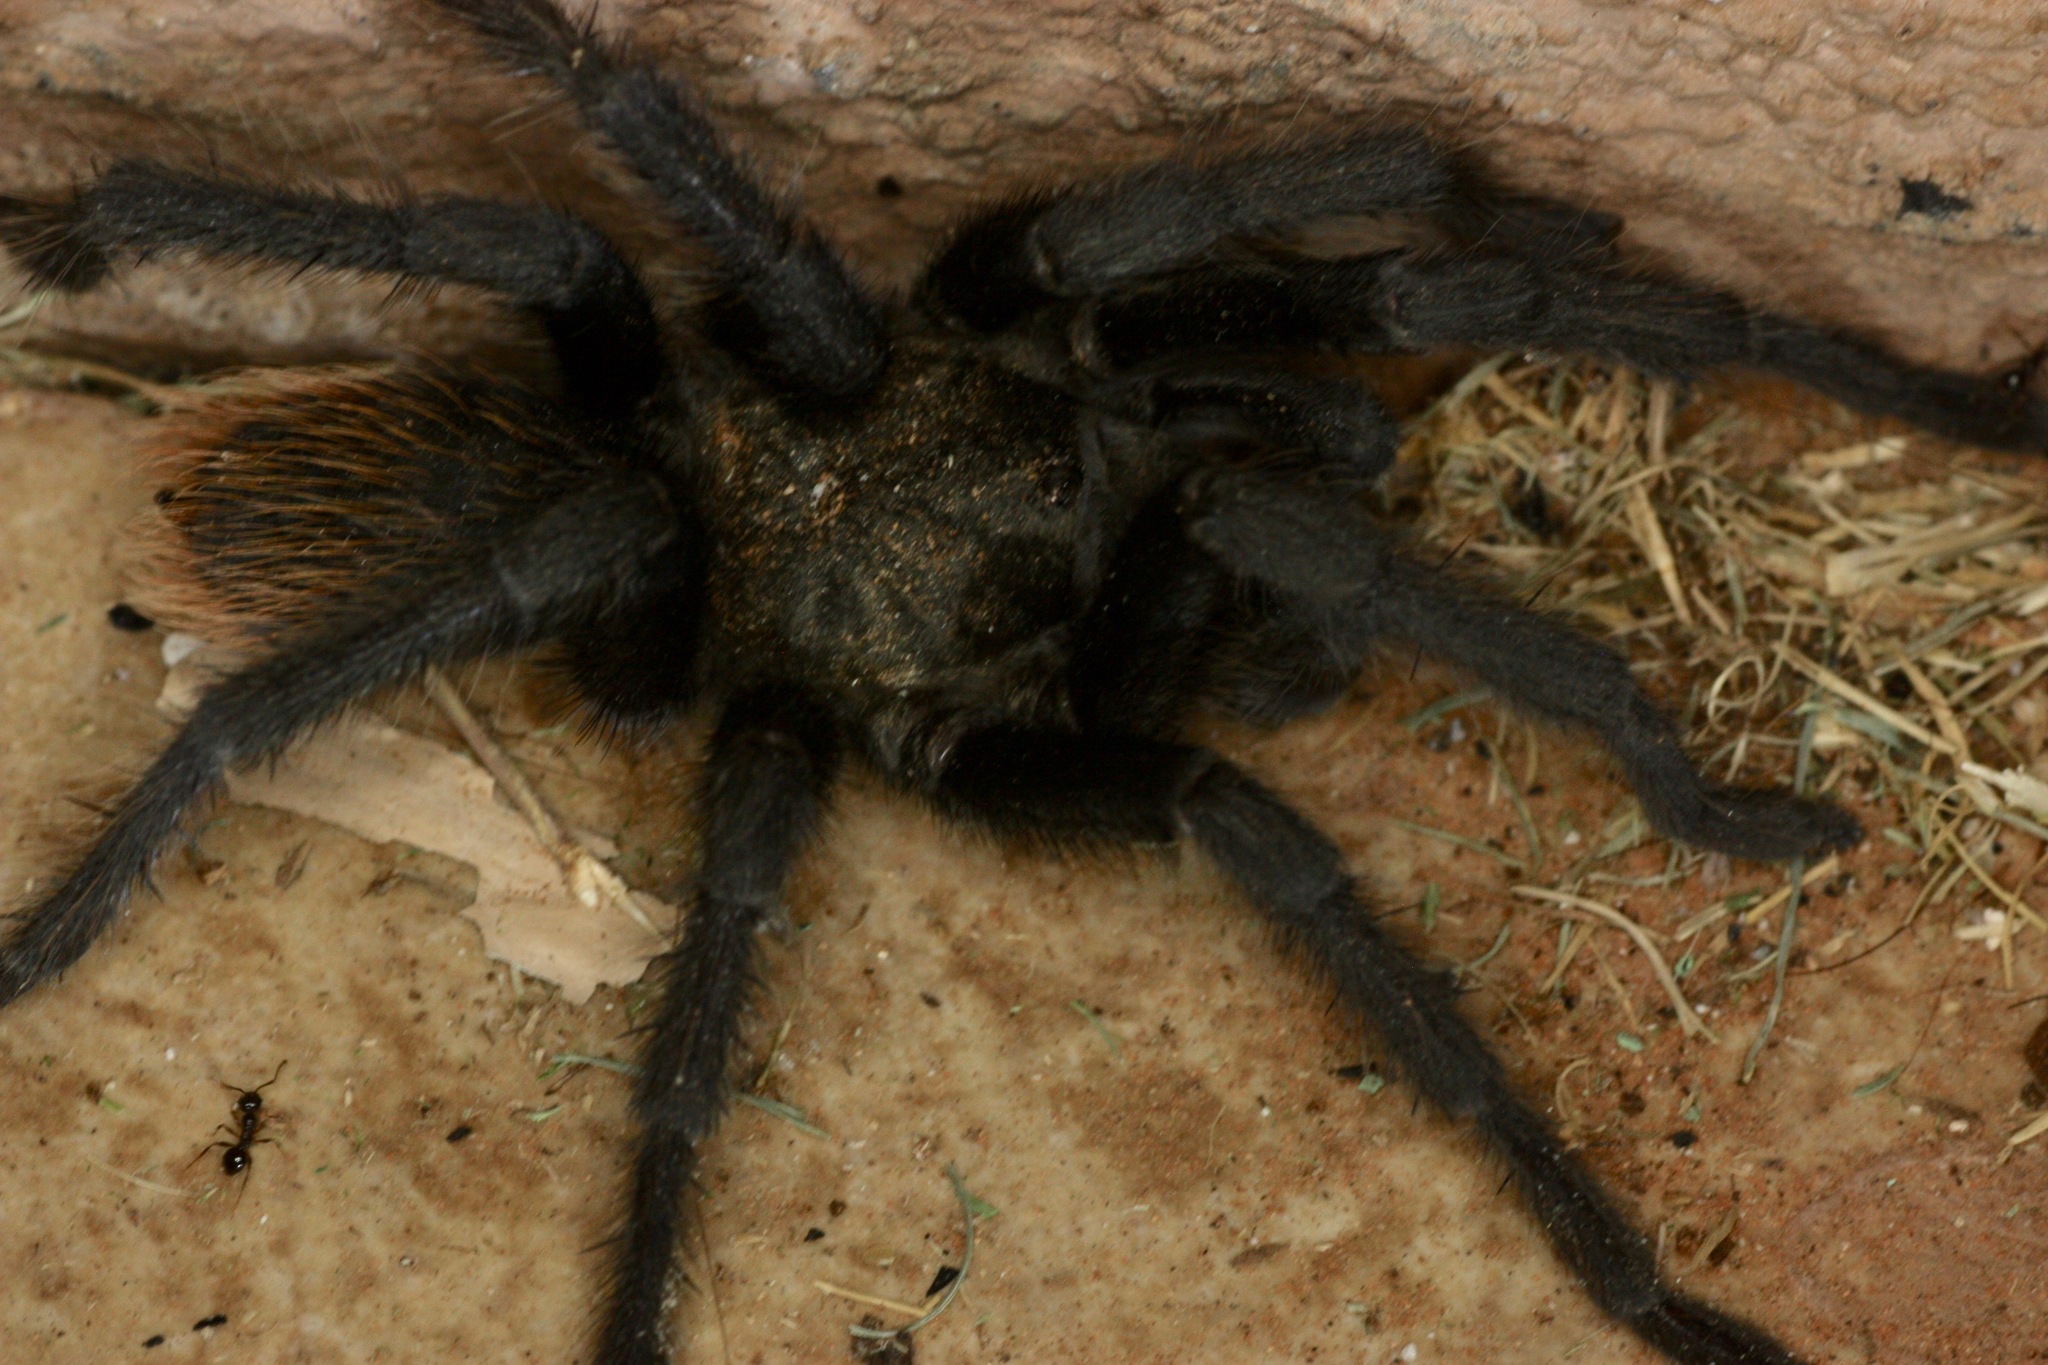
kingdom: Animalia
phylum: Arthropoda
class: Arachnida
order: Araneae
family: Theraphosidae
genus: Aphonopelma
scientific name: Aphonopelma vorhiesi
